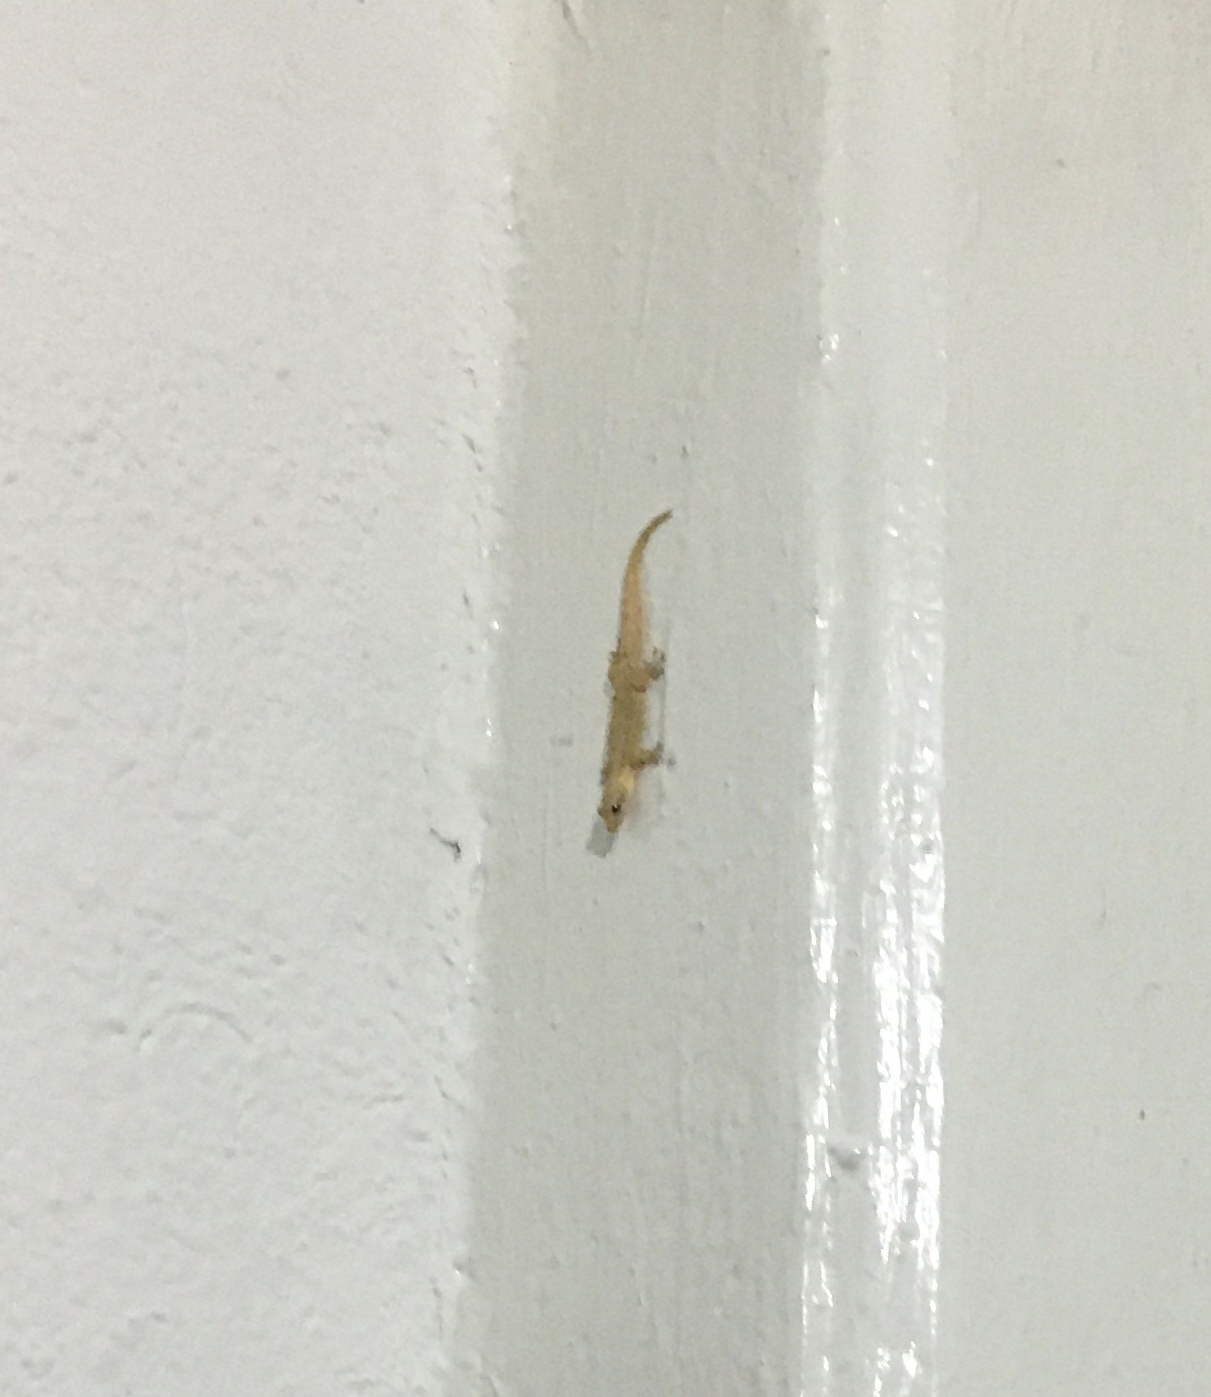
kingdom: Animalia
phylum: Chordata
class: Squamata
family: Gekkonidae
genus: Lepidodactylus
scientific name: Lepidodactylus lugubris
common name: Mourning gecko
